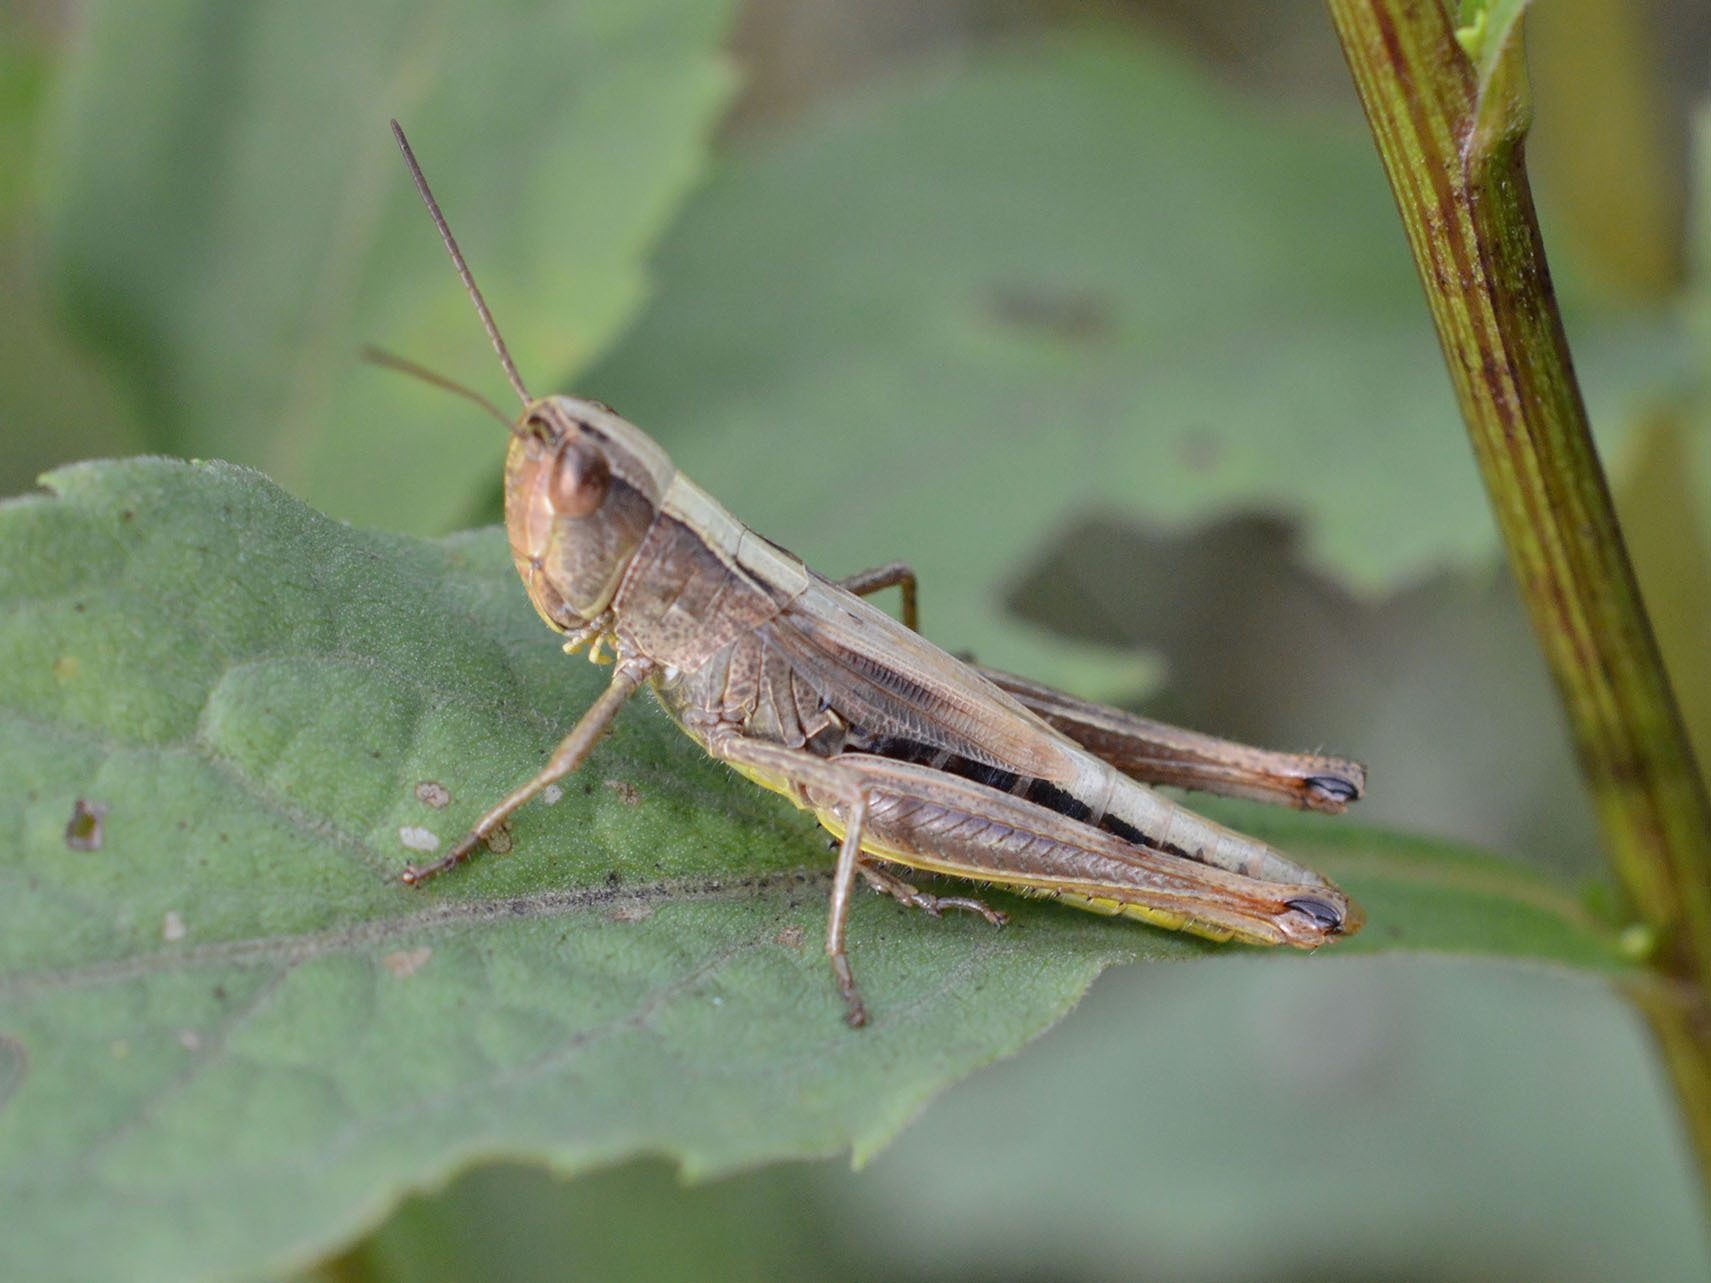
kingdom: Animalia
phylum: Arthropoda
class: Insecta
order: Orthoptera
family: Acrididae
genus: Pseudochorthippus
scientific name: Pseudochorthippus parallelus
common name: Meadow grasshopper
